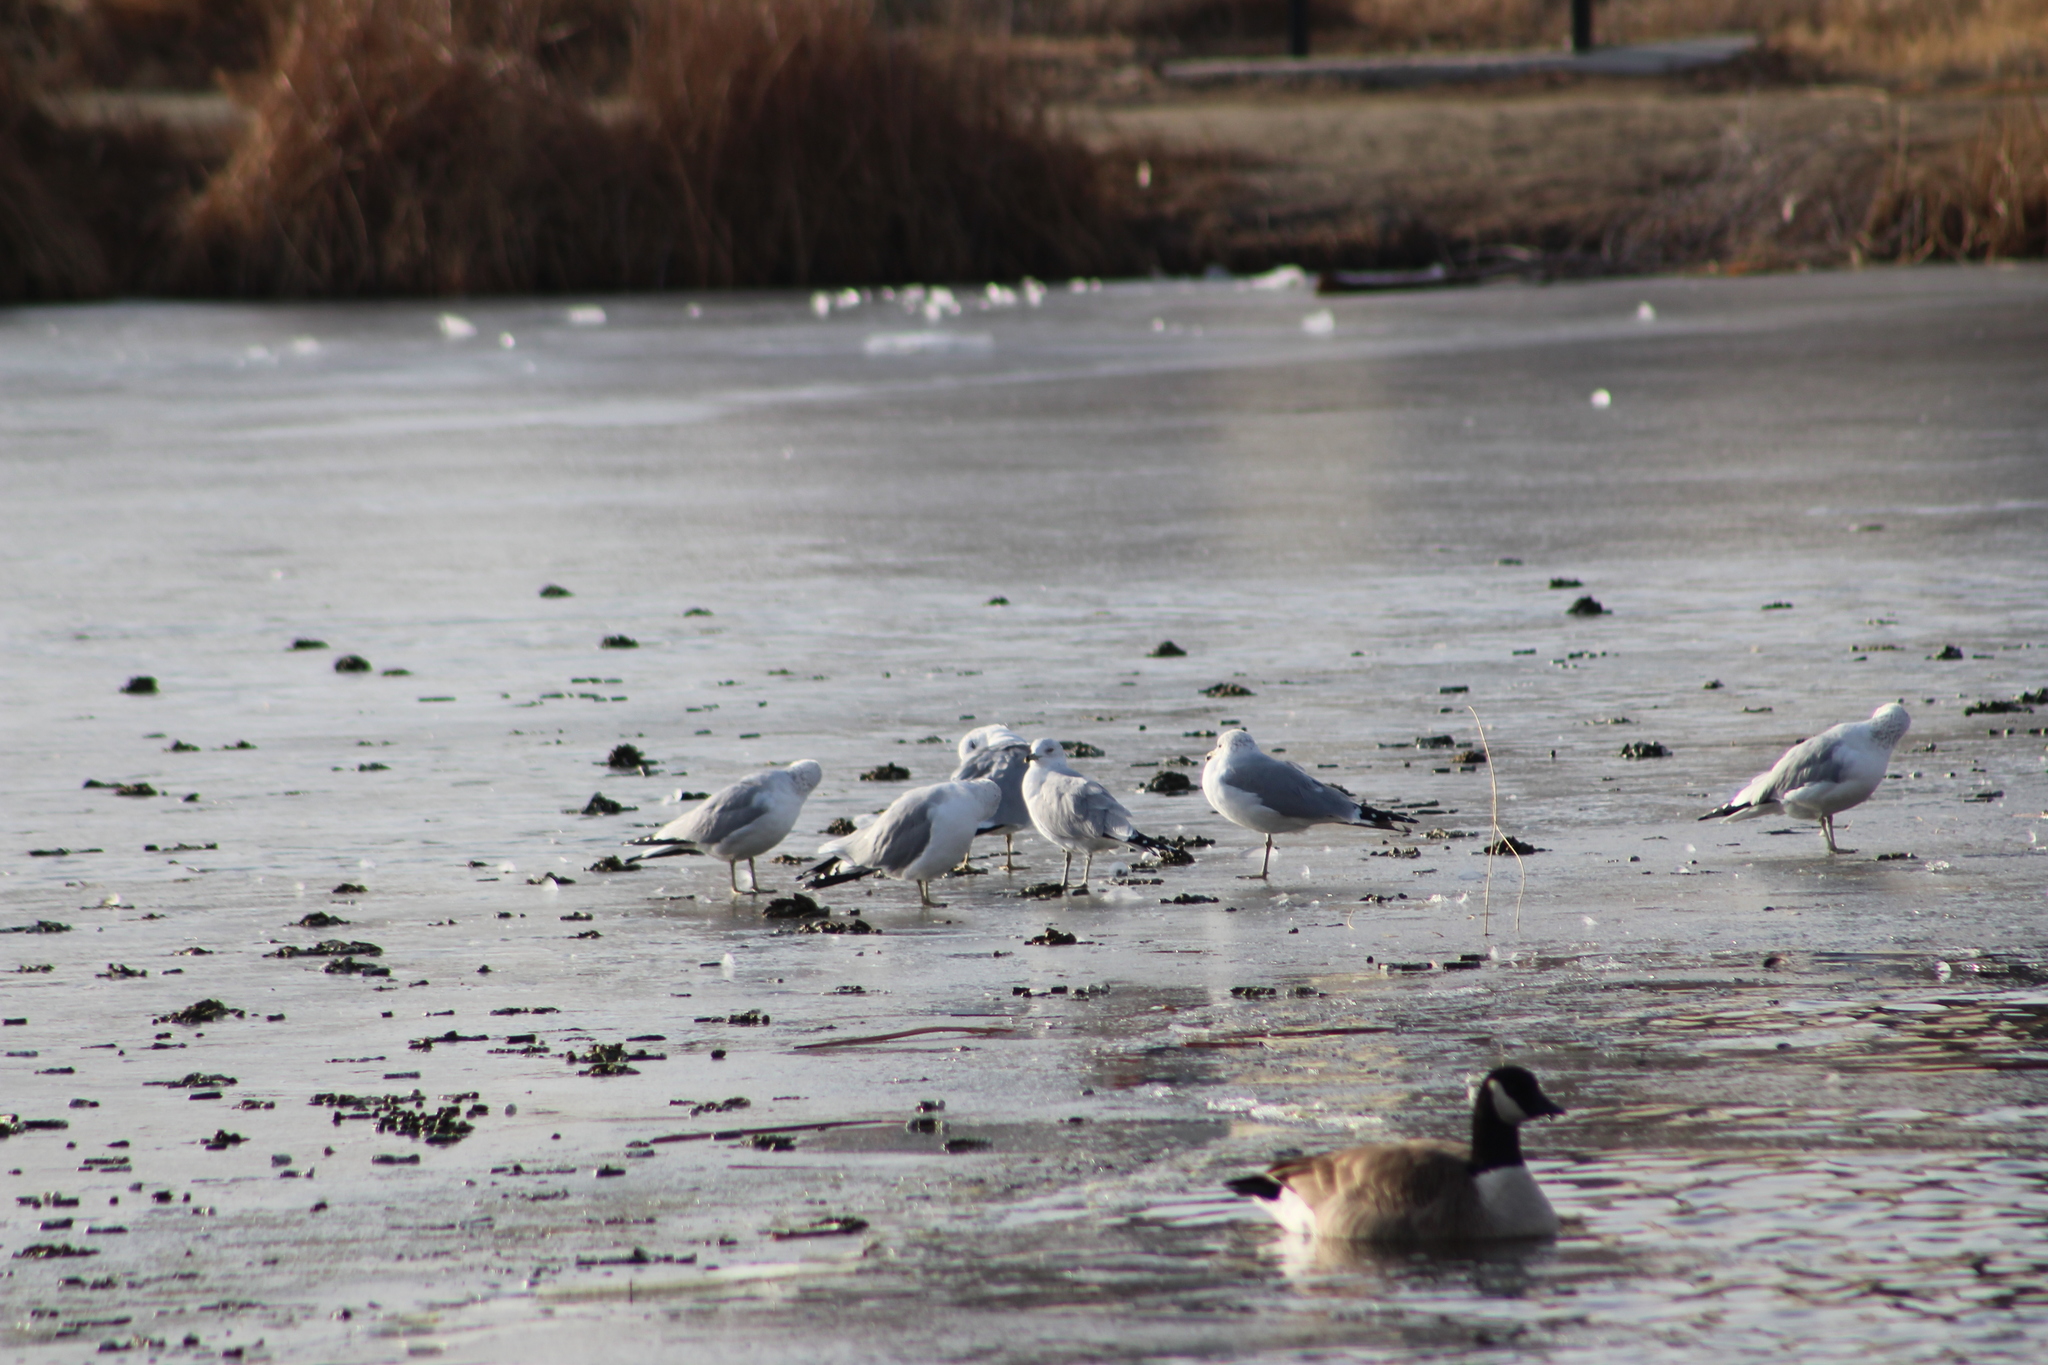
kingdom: Animalia
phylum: Chordata
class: Aves
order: Charadriiformes
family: Laridae
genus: Larus
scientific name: Larus delawarensis
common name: Ring-billed gull
